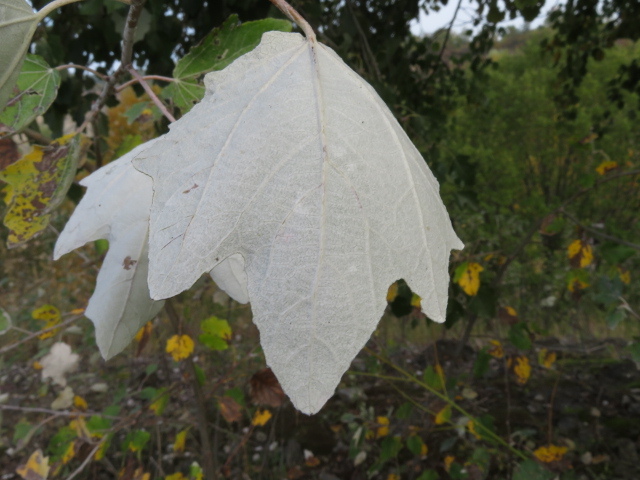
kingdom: Plantae
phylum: Tracheophyta
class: Magnoliopsida
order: Malpighiales
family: Salicaceae
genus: Populus
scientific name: Populus alba
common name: White poplar
